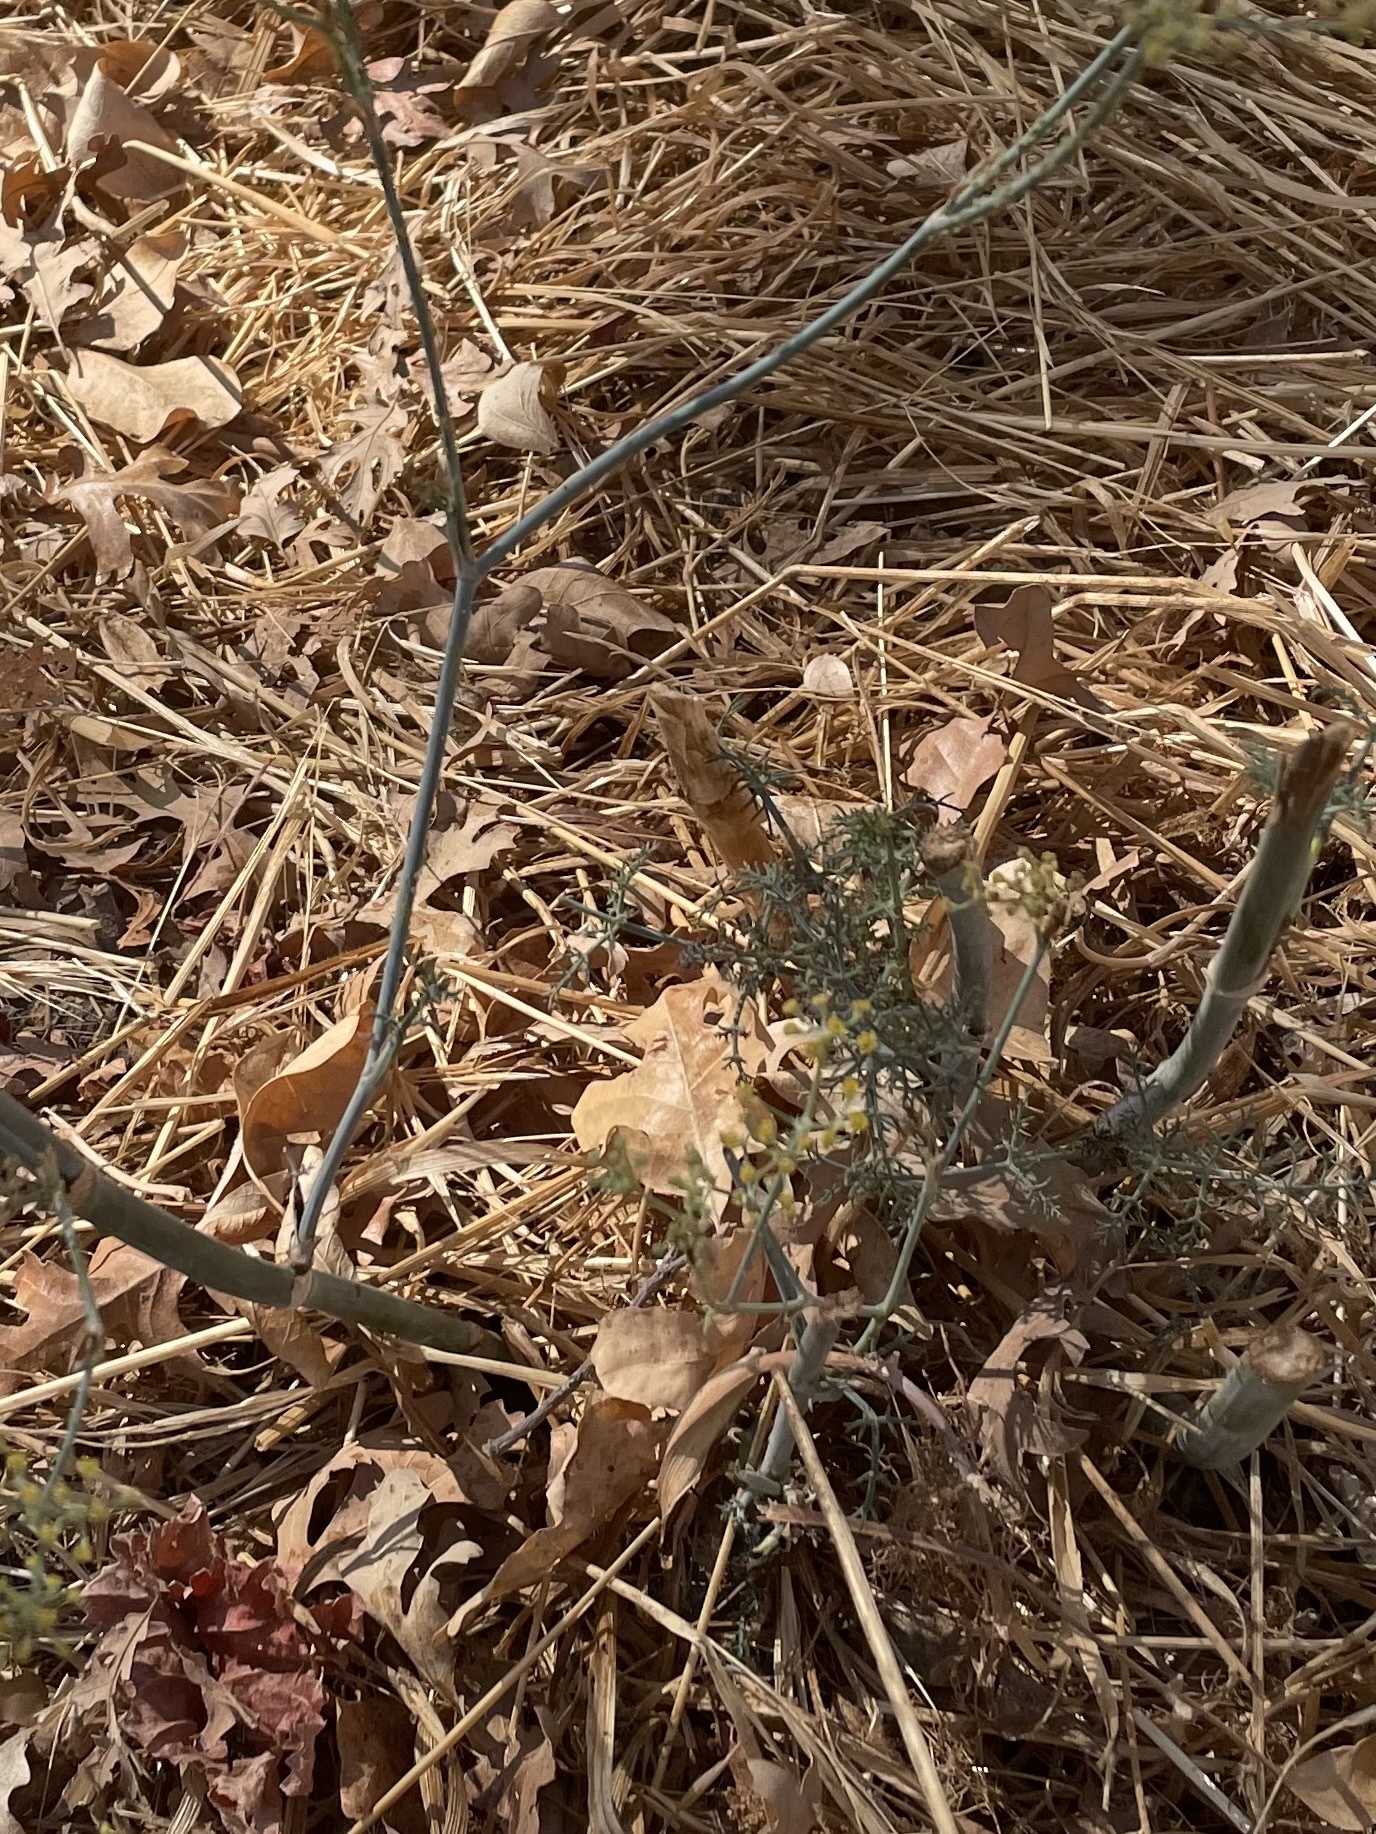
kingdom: Plantae
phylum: Tracheophyta
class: Magnoliopsida
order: Apiales
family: Apiaceae
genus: Foeniculum
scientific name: Foeniculum vulgare
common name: Fennel
